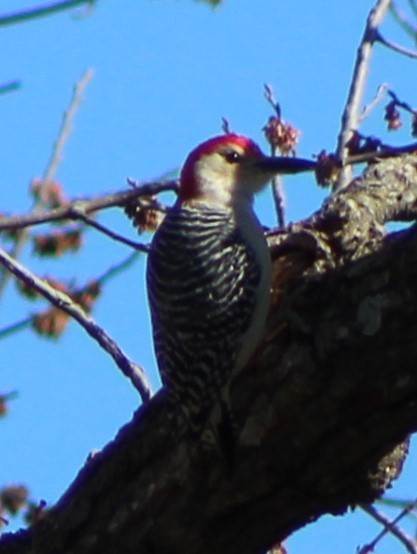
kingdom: Animalia
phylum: Chordata
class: Aves
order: Piciformes
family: Picidae
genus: Melanerpes
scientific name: Melanerpes carolinus
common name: Red-bellied woodpecker
